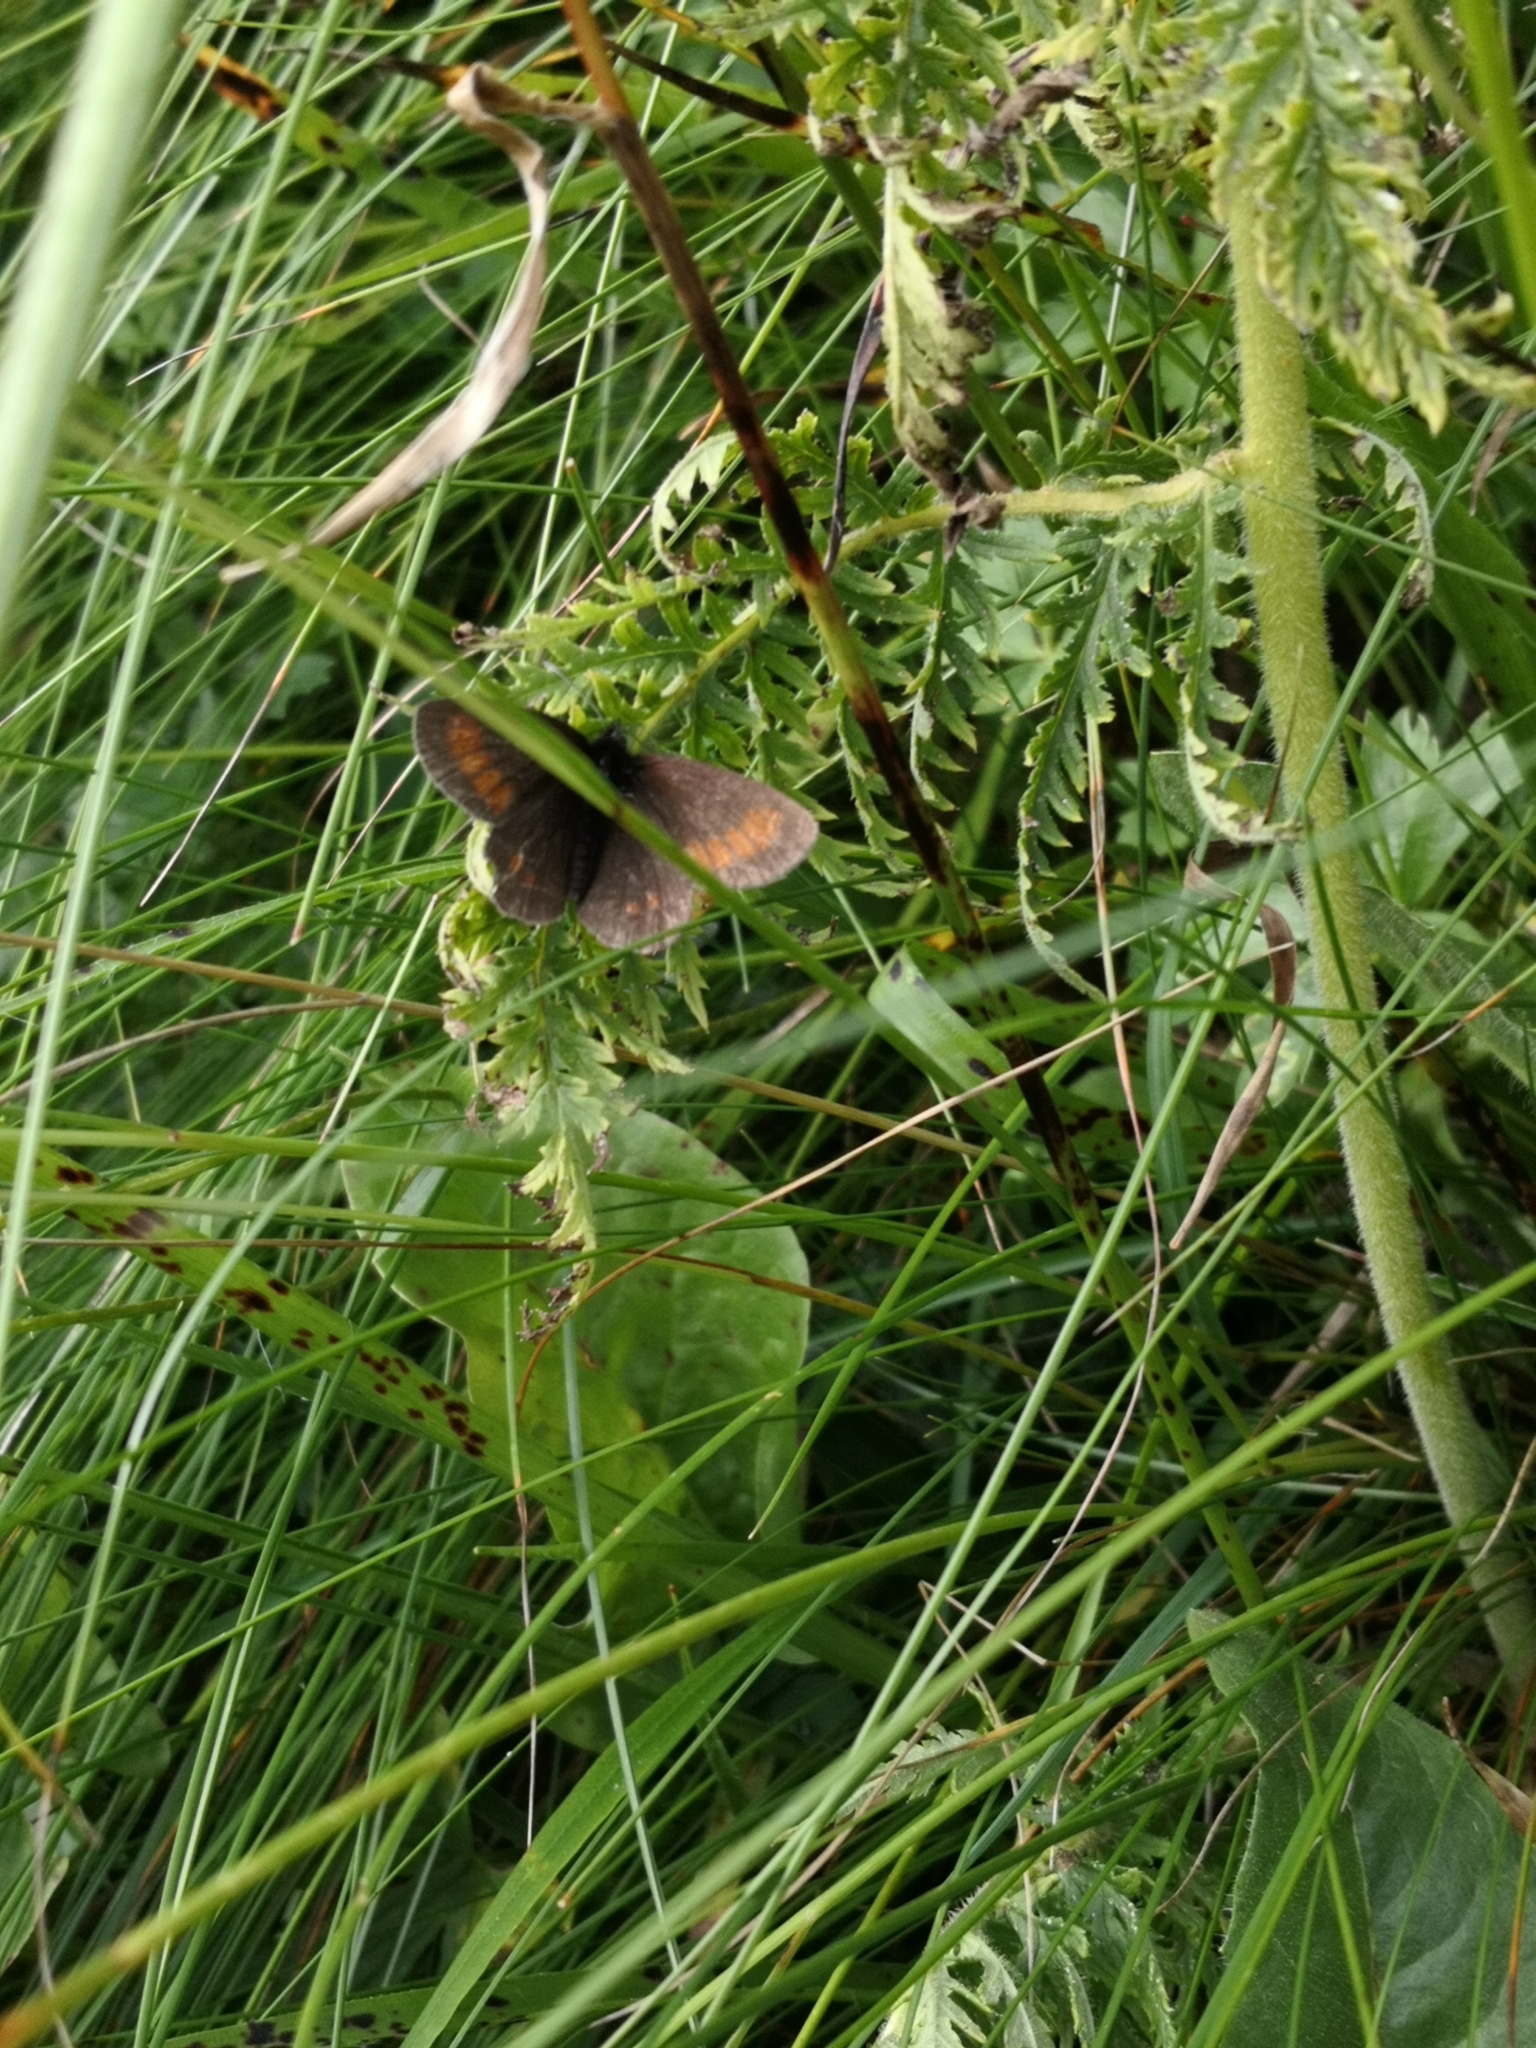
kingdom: Animalia
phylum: Arthropoda
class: Insecta
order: Lepidoptera
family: Nymphalidae
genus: Erebia
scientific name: Erebia melampus
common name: Lesser mountain ringlet
